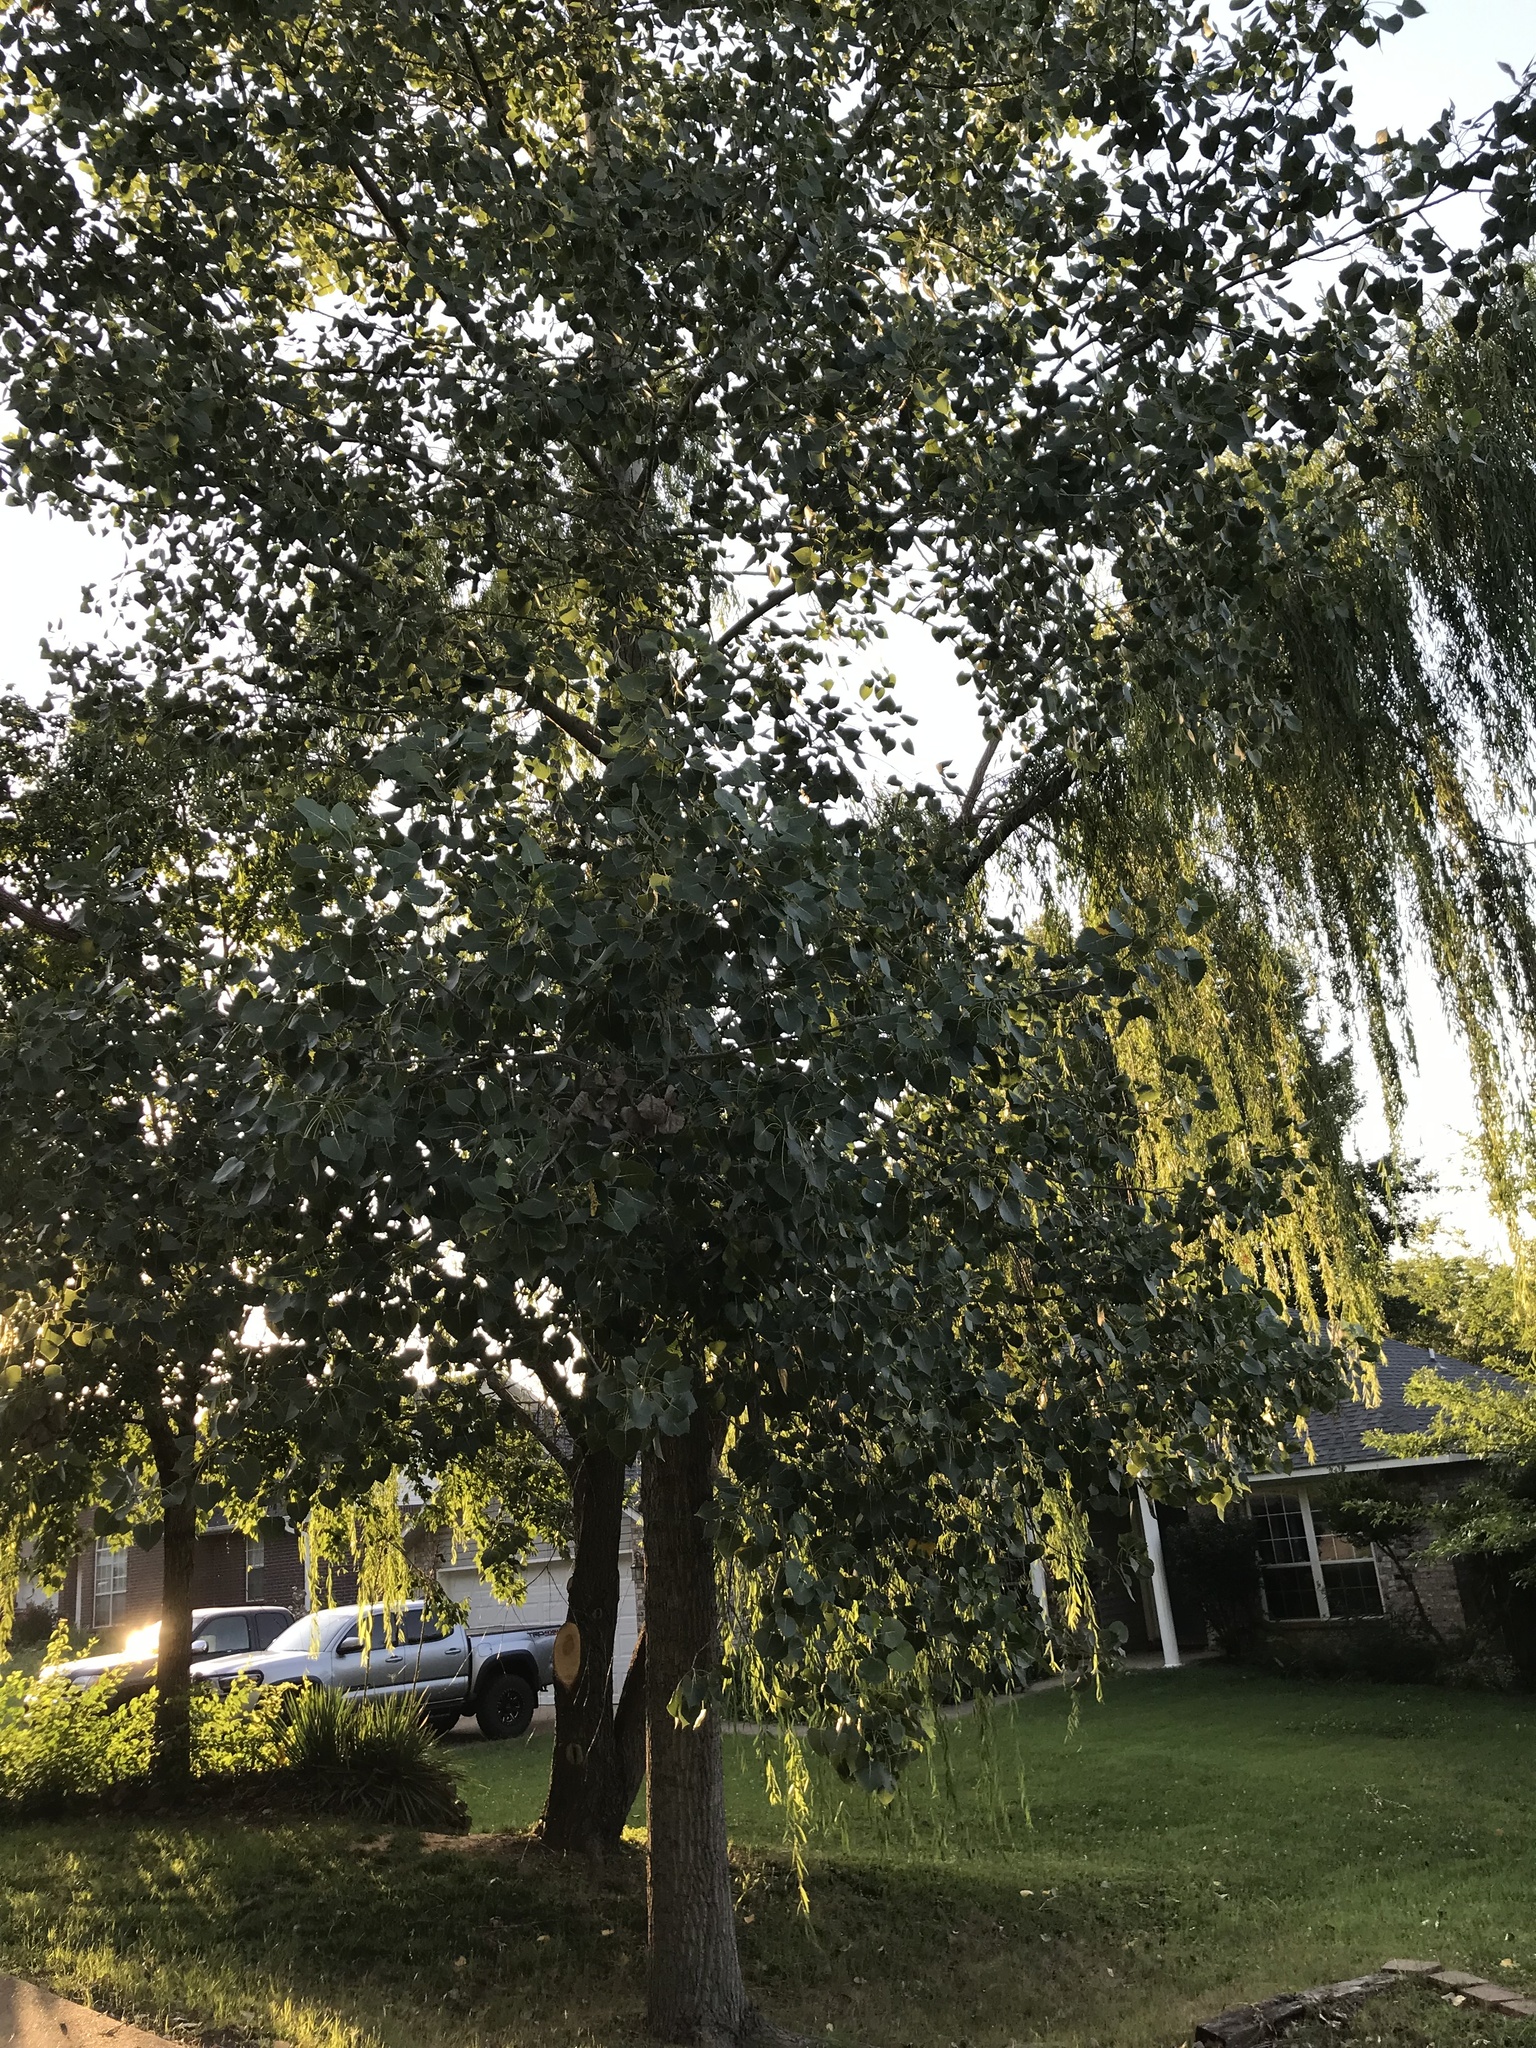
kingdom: Plantae
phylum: Tracheophyta
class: Magnoliopsida
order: Malpighiales
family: Salicaceae
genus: Populus
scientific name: Populus deltoides
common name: Eastern cottonwood
